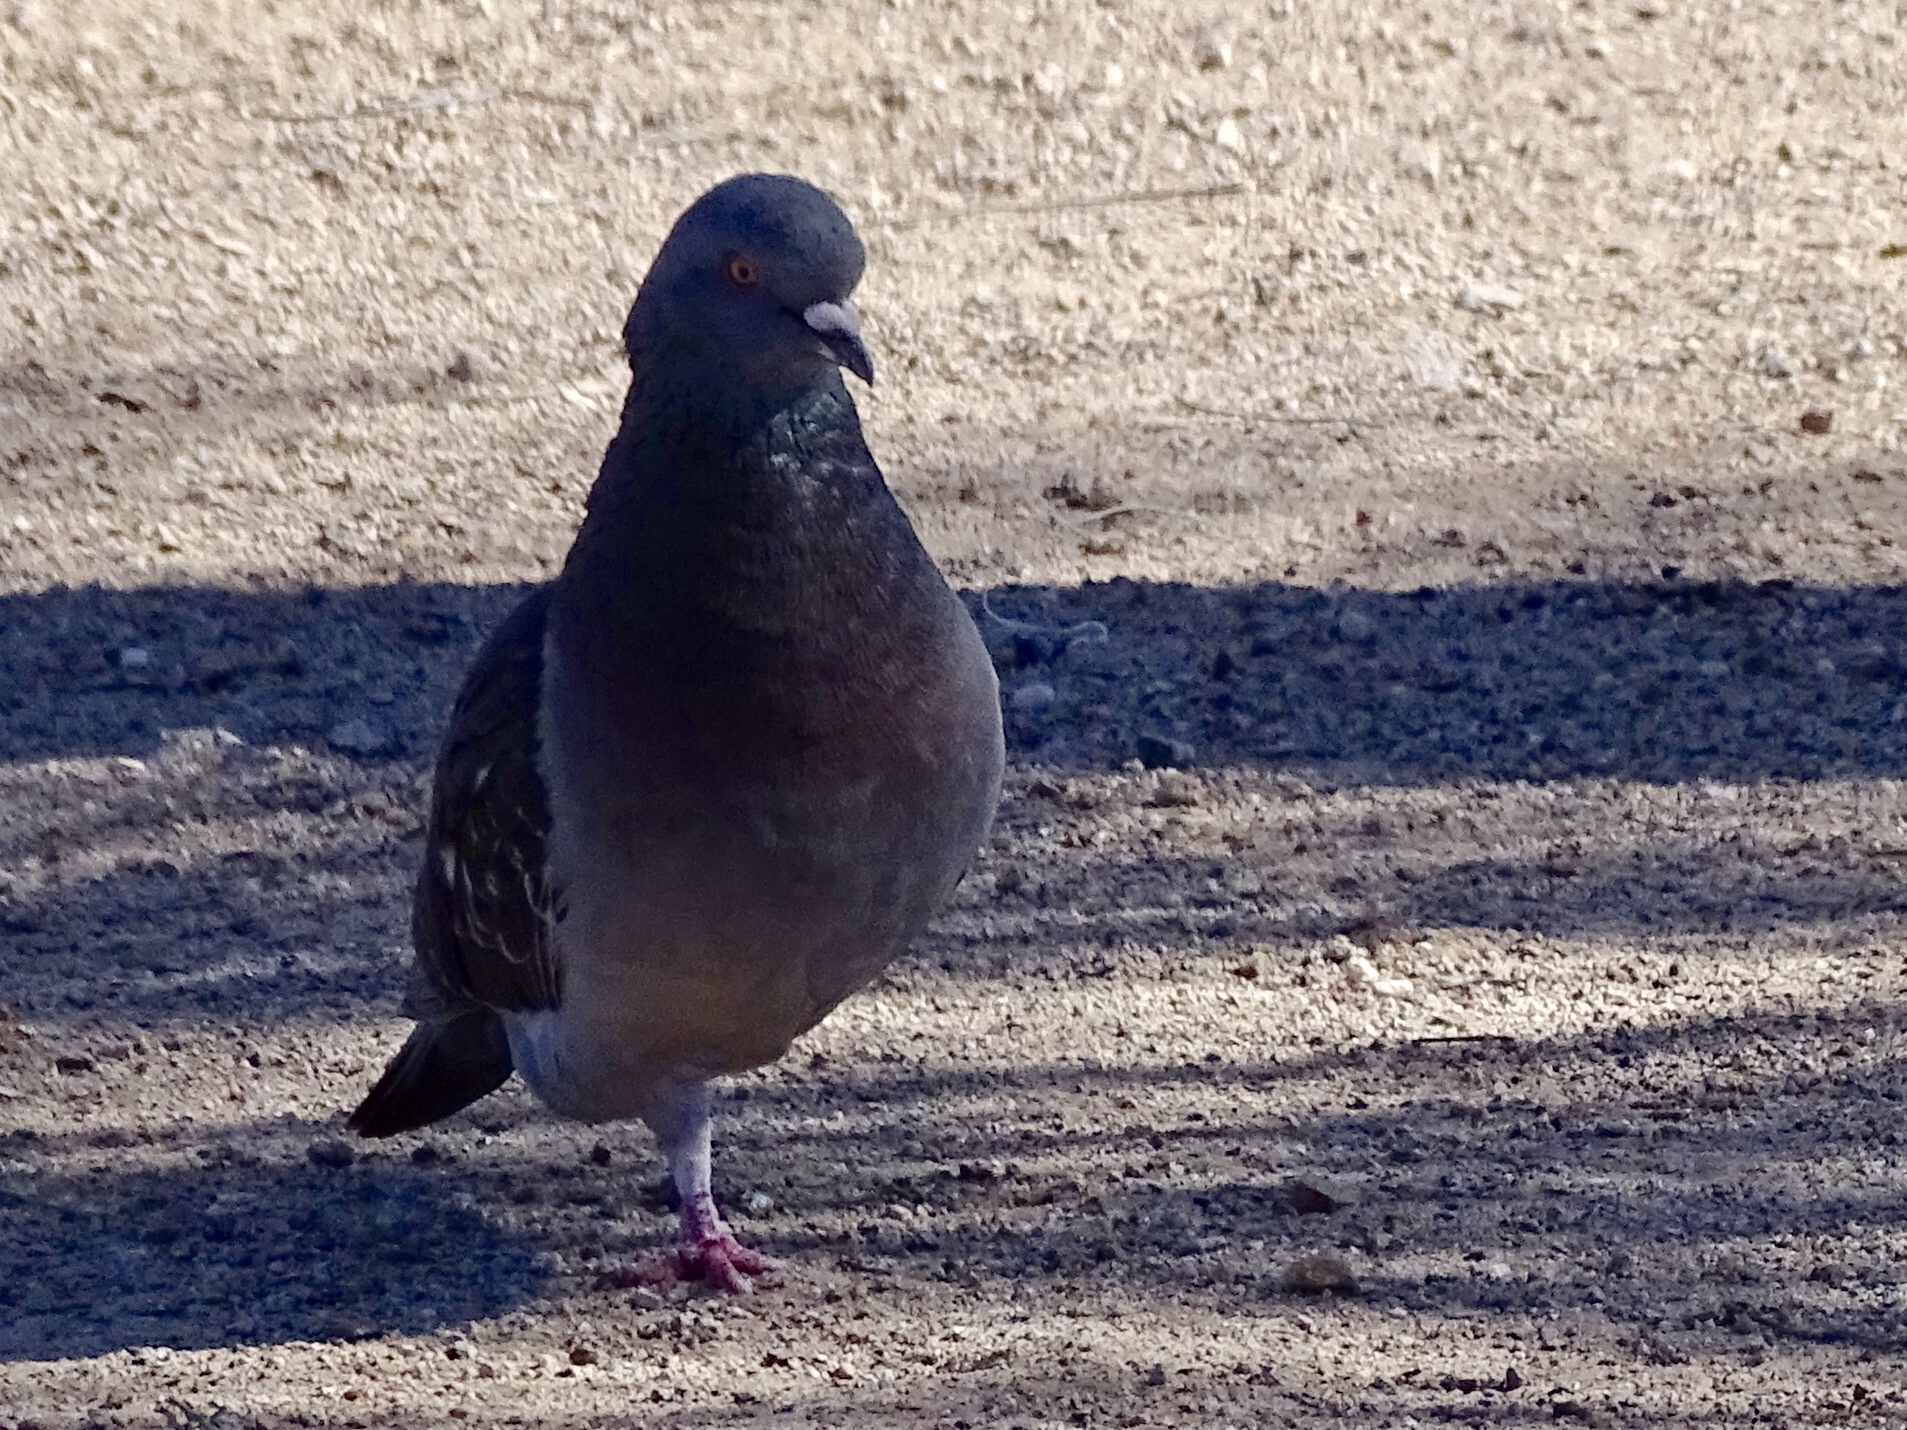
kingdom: Animalia
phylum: Chordata
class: Aves
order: Columbiformes
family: Columbidae
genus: Columba
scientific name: Columba livia
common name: Rock pigeon
